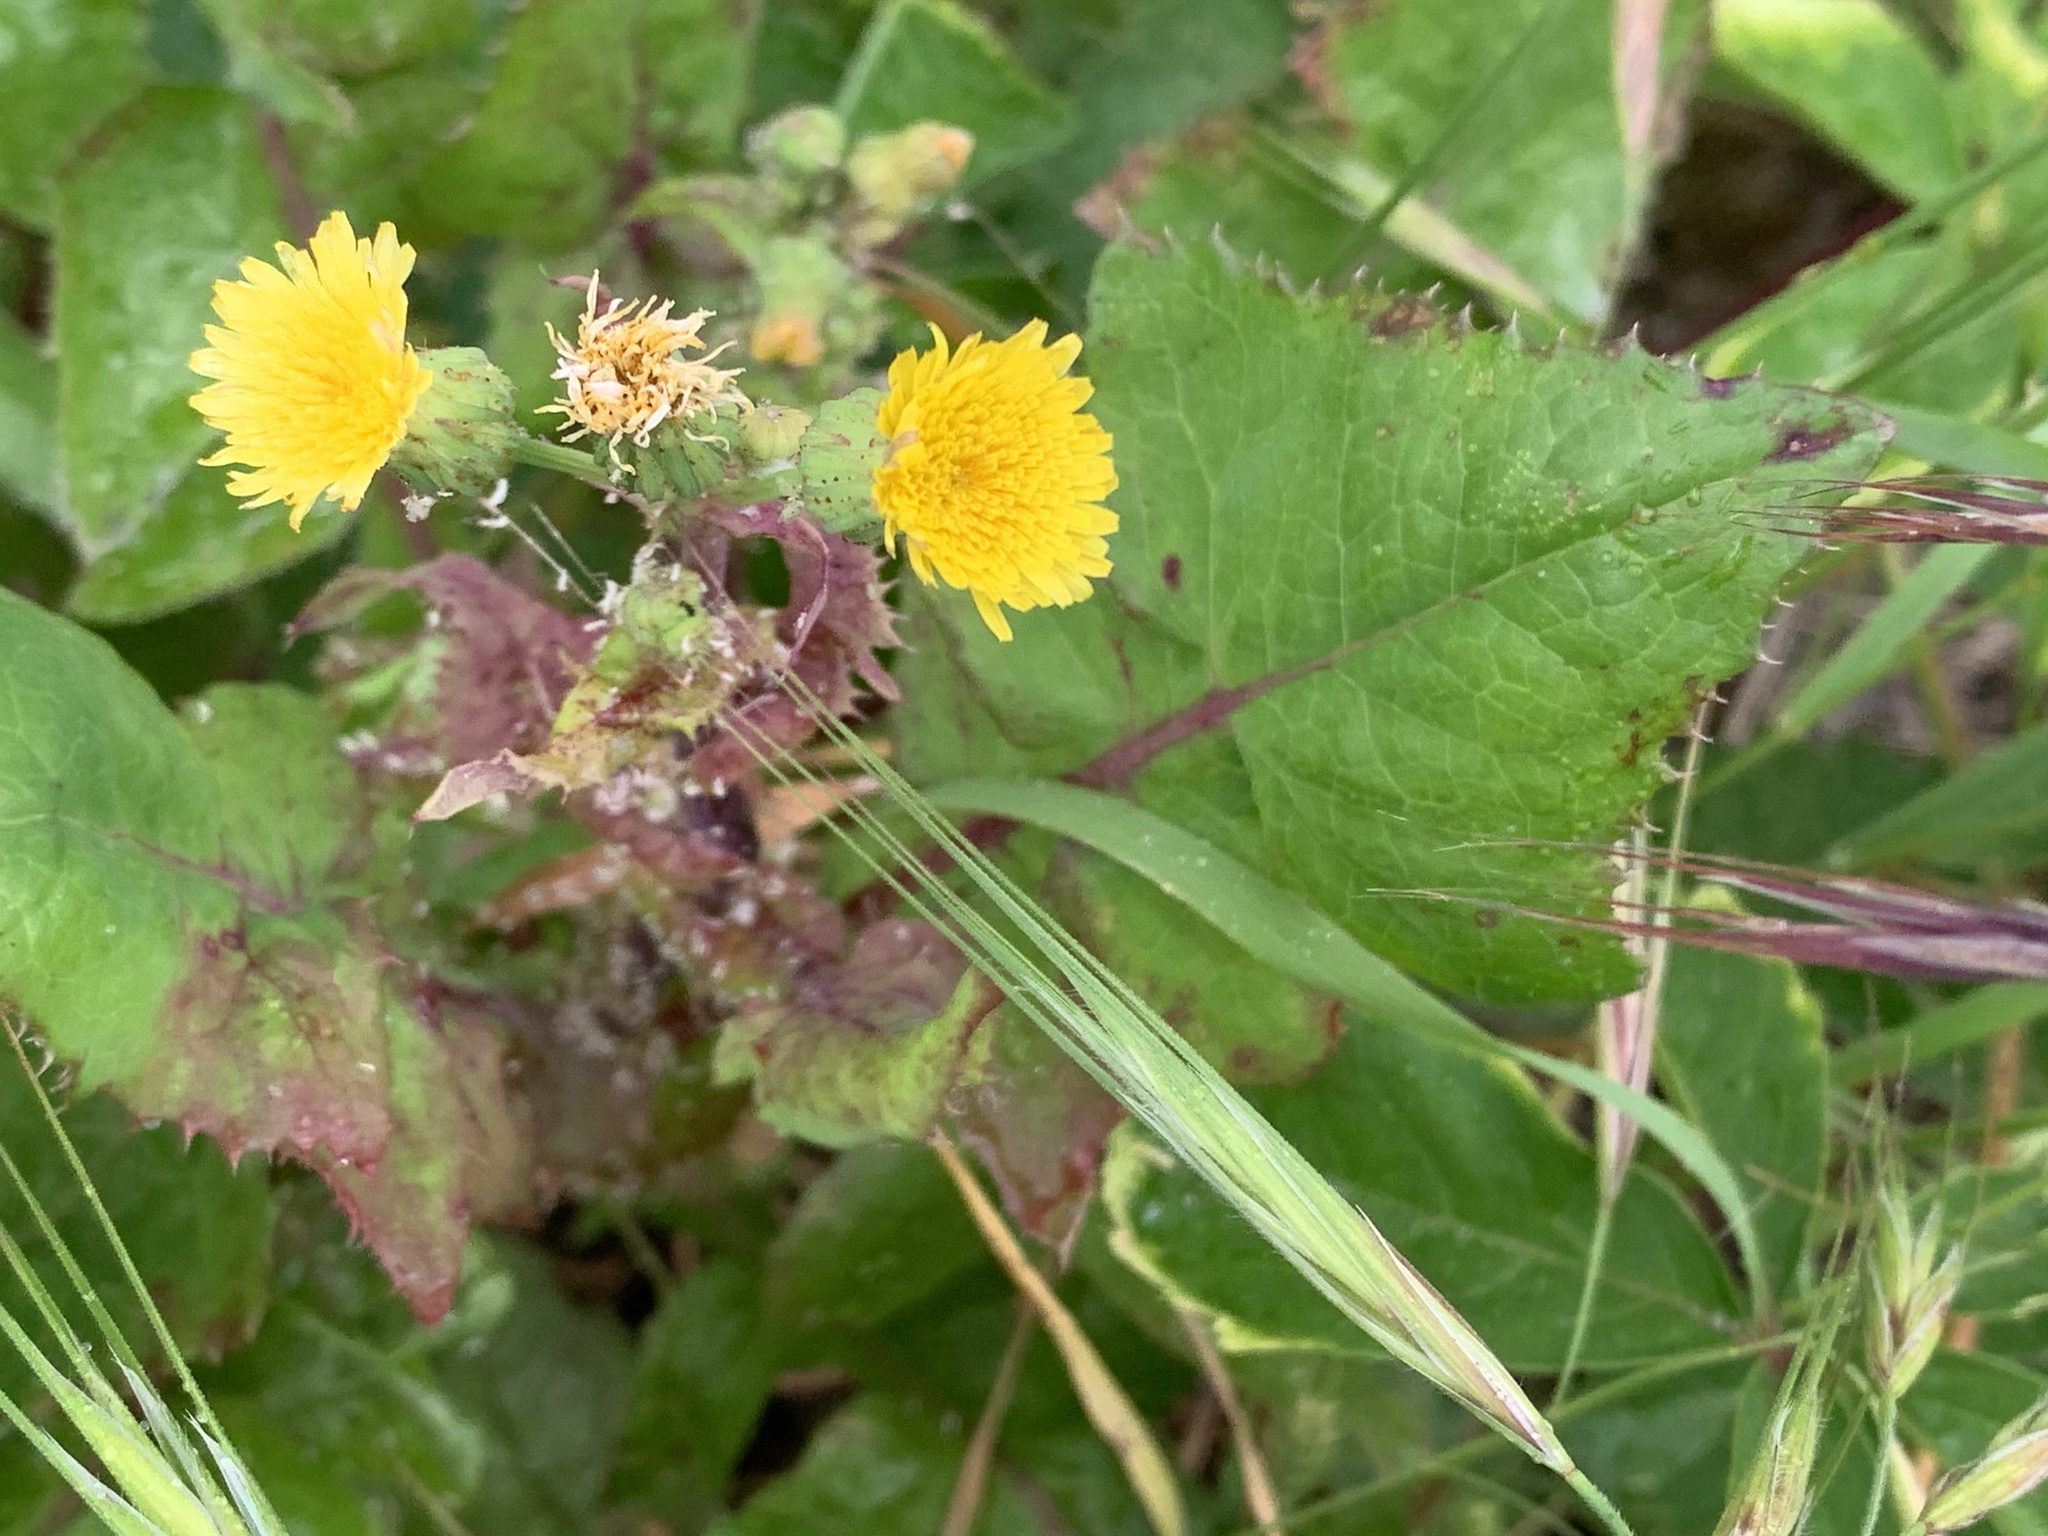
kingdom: Plantae
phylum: Tracheophyta
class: Magnoliopsida
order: Asterales
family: Asteraceae
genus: Sonchus
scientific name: Sonchus asper
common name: Prickly sow-thistle
